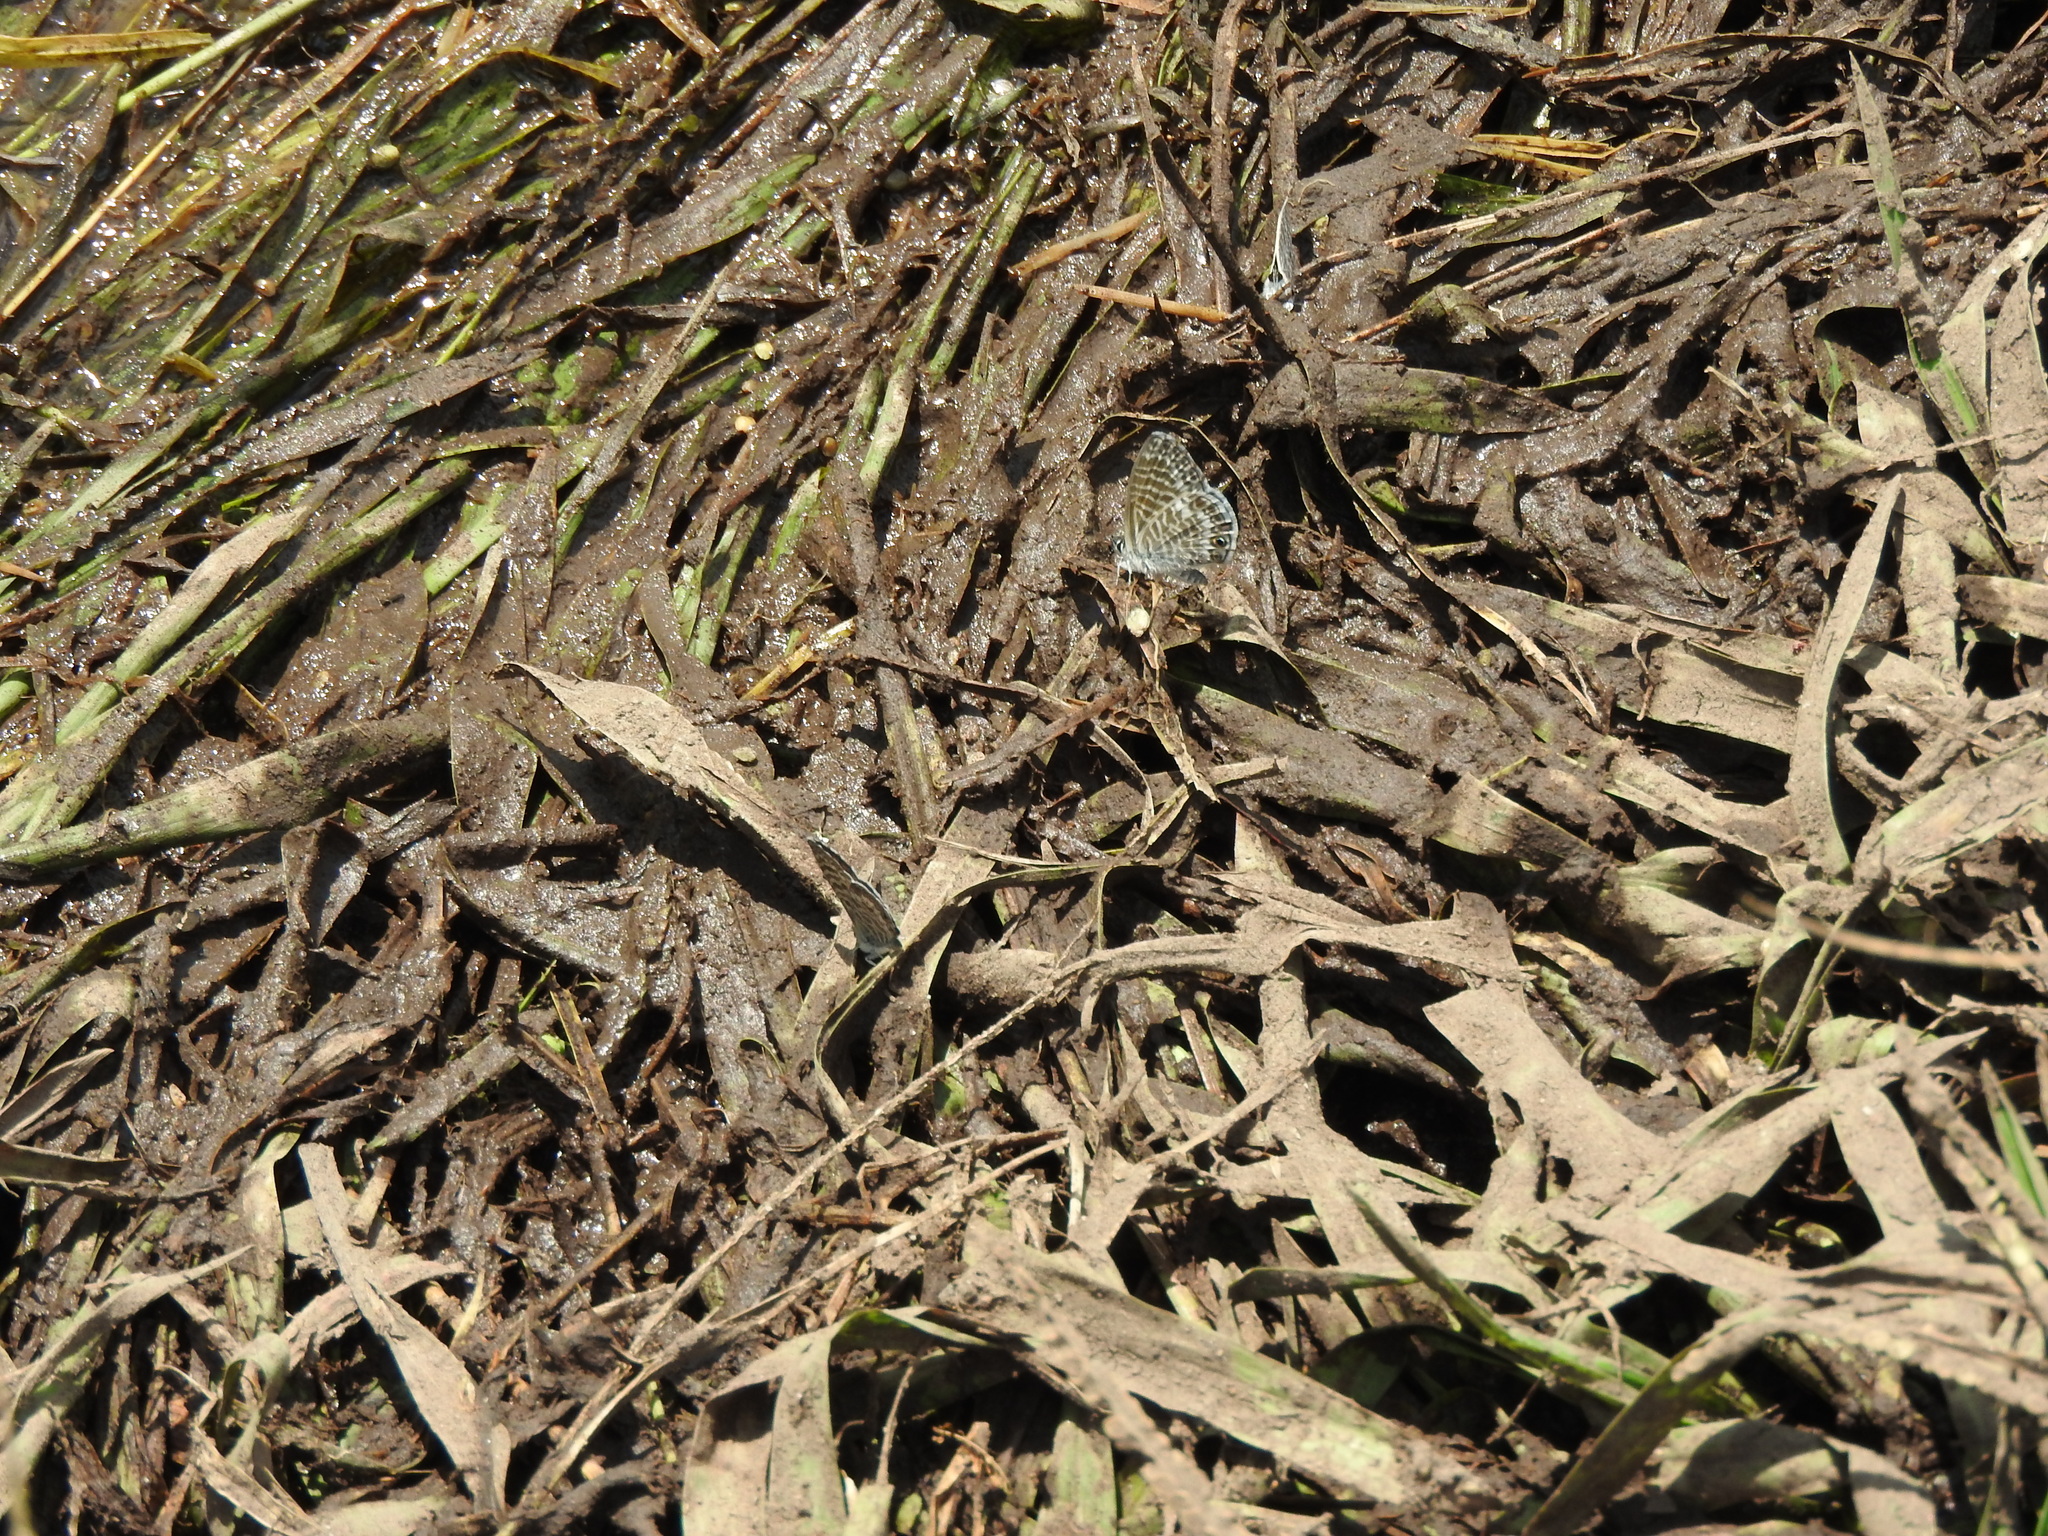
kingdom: Animalia
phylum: Arthropoda
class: Insecta
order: Lepidoptera
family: Lycaenidae
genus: Leptotes
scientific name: Leptotes marina
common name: Marine blue
